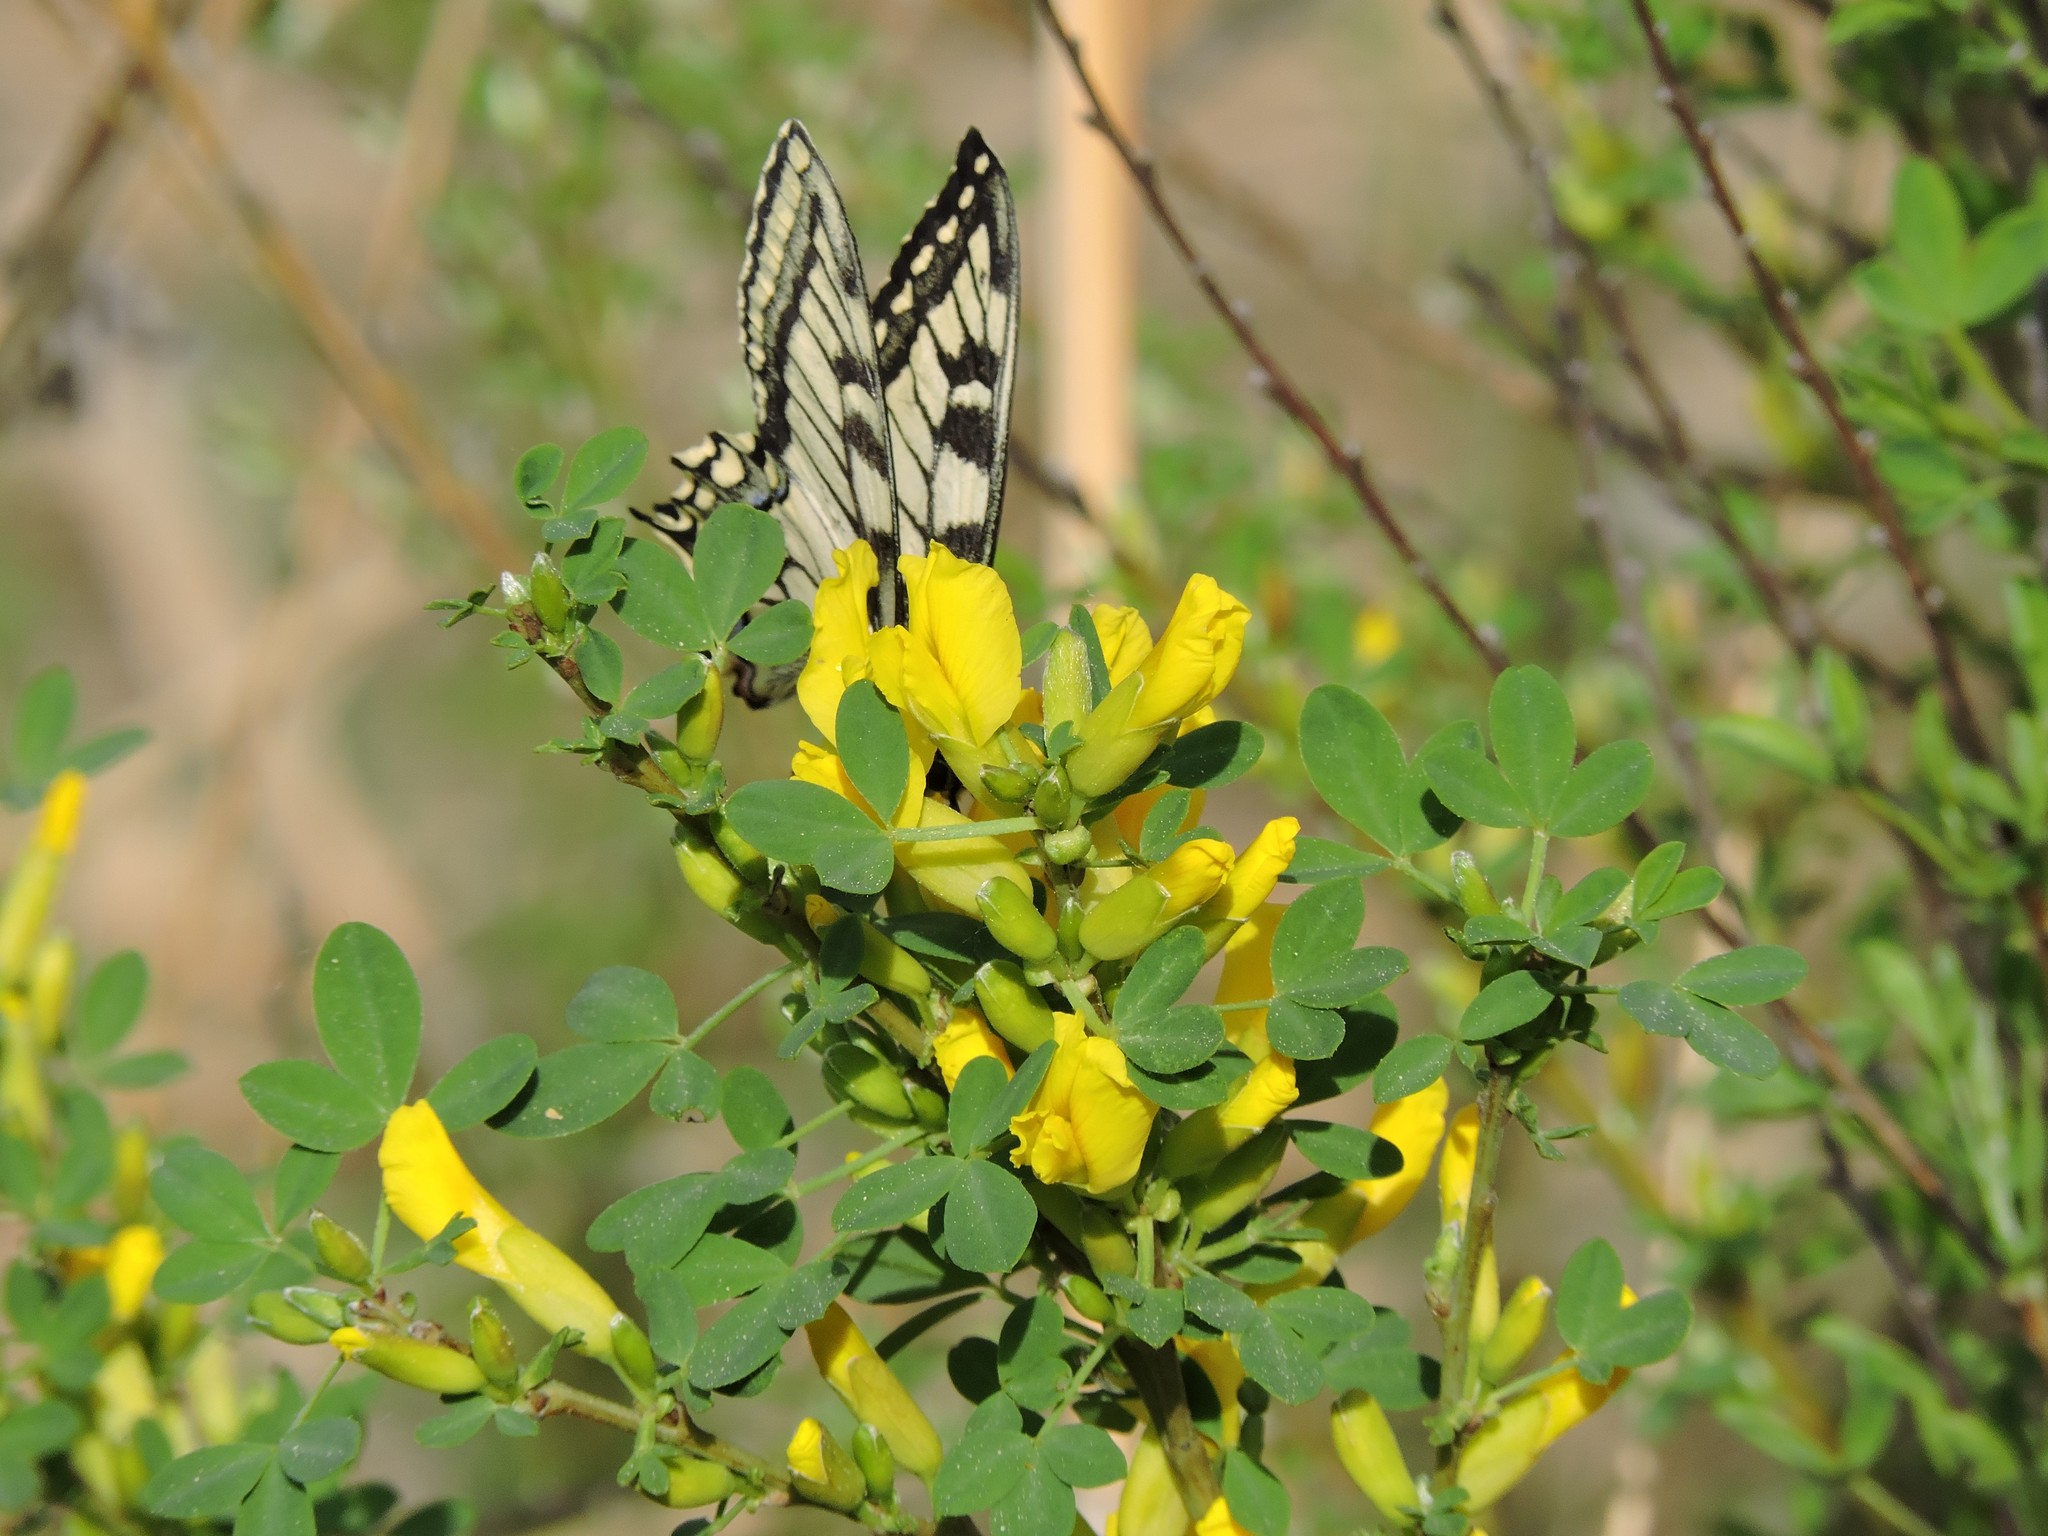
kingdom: Plantae
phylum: Tracheophyta
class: Magnoliopsida
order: Fabales
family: Fabaceae
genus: Chamaecytisus
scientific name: Chamaecytisus ruthenicus
